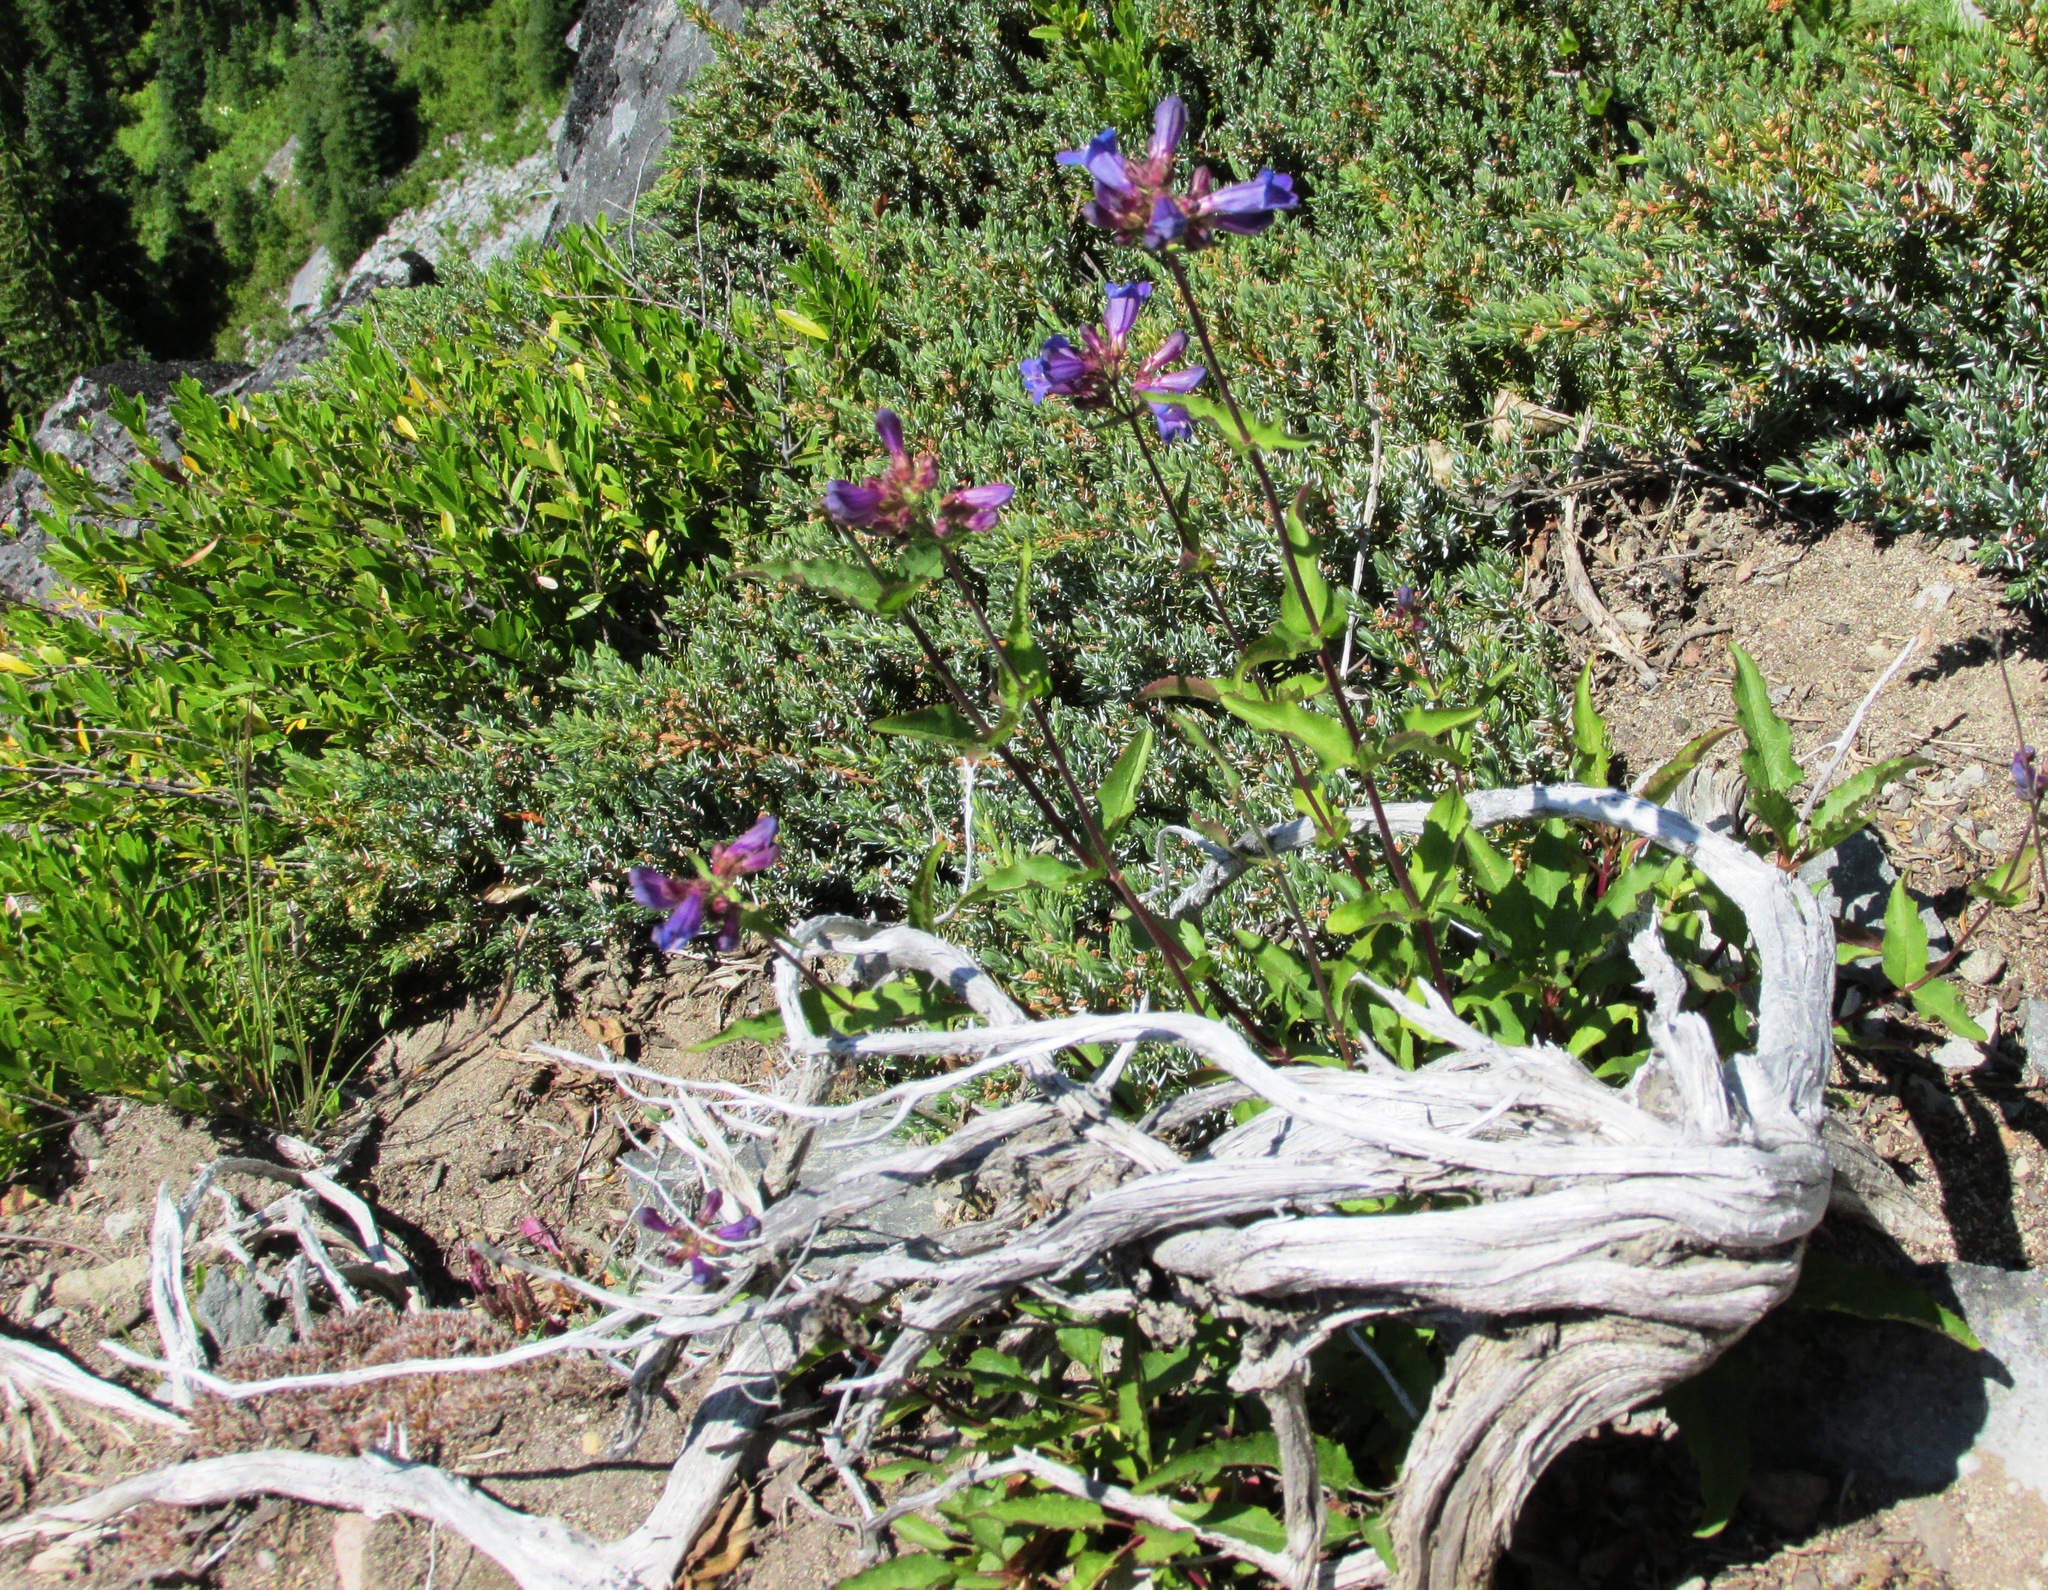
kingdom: Plantae
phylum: Tracheophyta
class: Magnoliopsida
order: Lamiales
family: Plantaginaceae
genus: Penstemon
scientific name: Penstemon serrulatus
